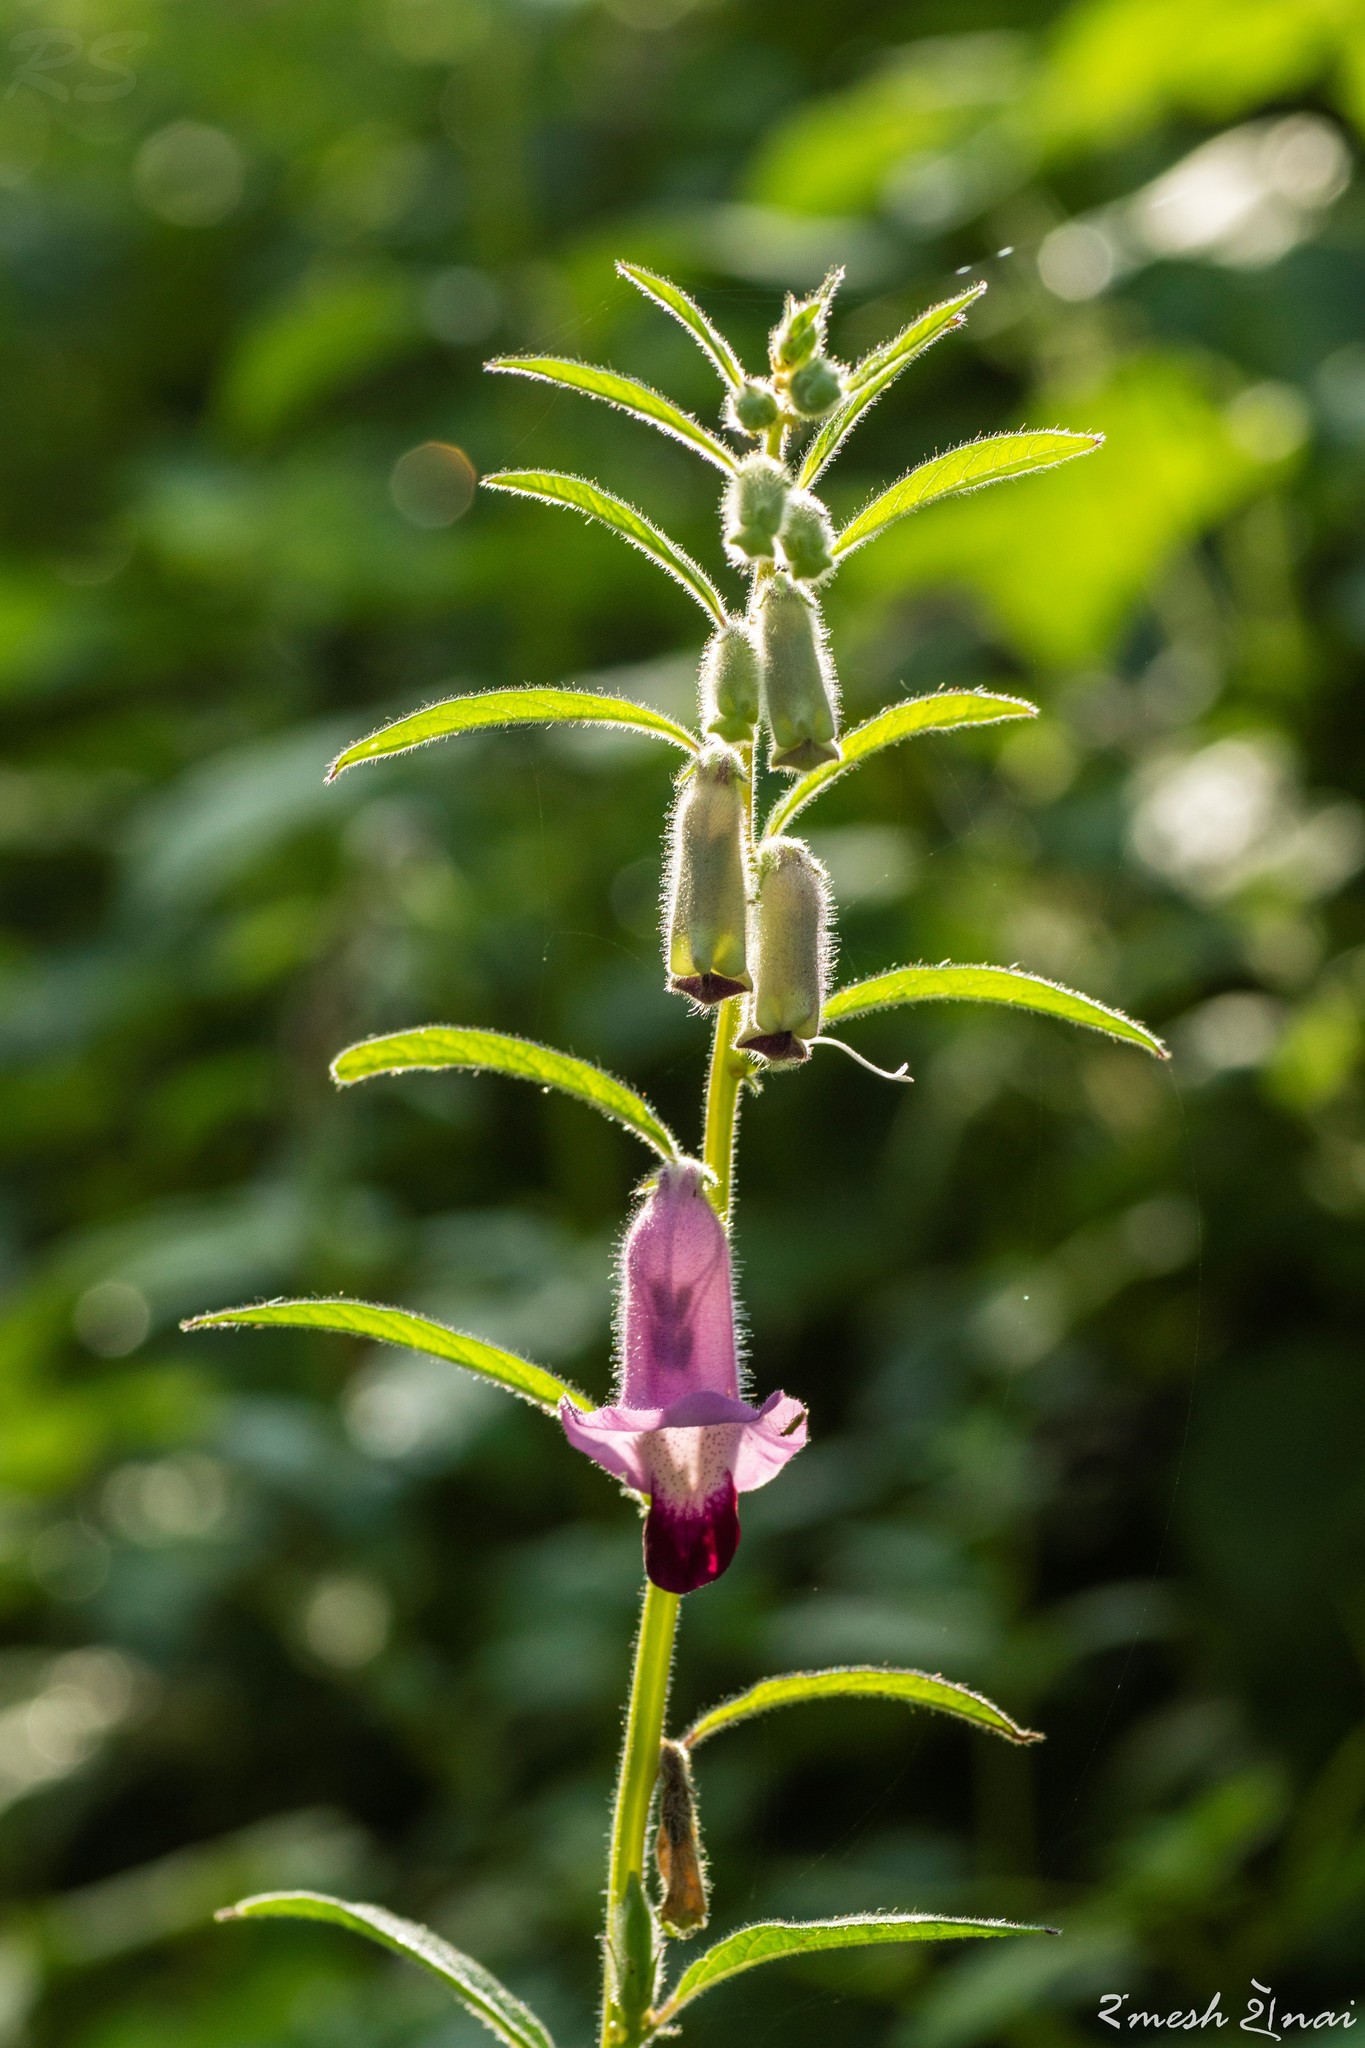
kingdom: Plantae
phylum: Tracheophyta
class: Magnoliopsida
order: Lamiales
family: Pedaliaceae
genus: Sesamum
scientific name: Sesamum indicum
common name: Sesame
